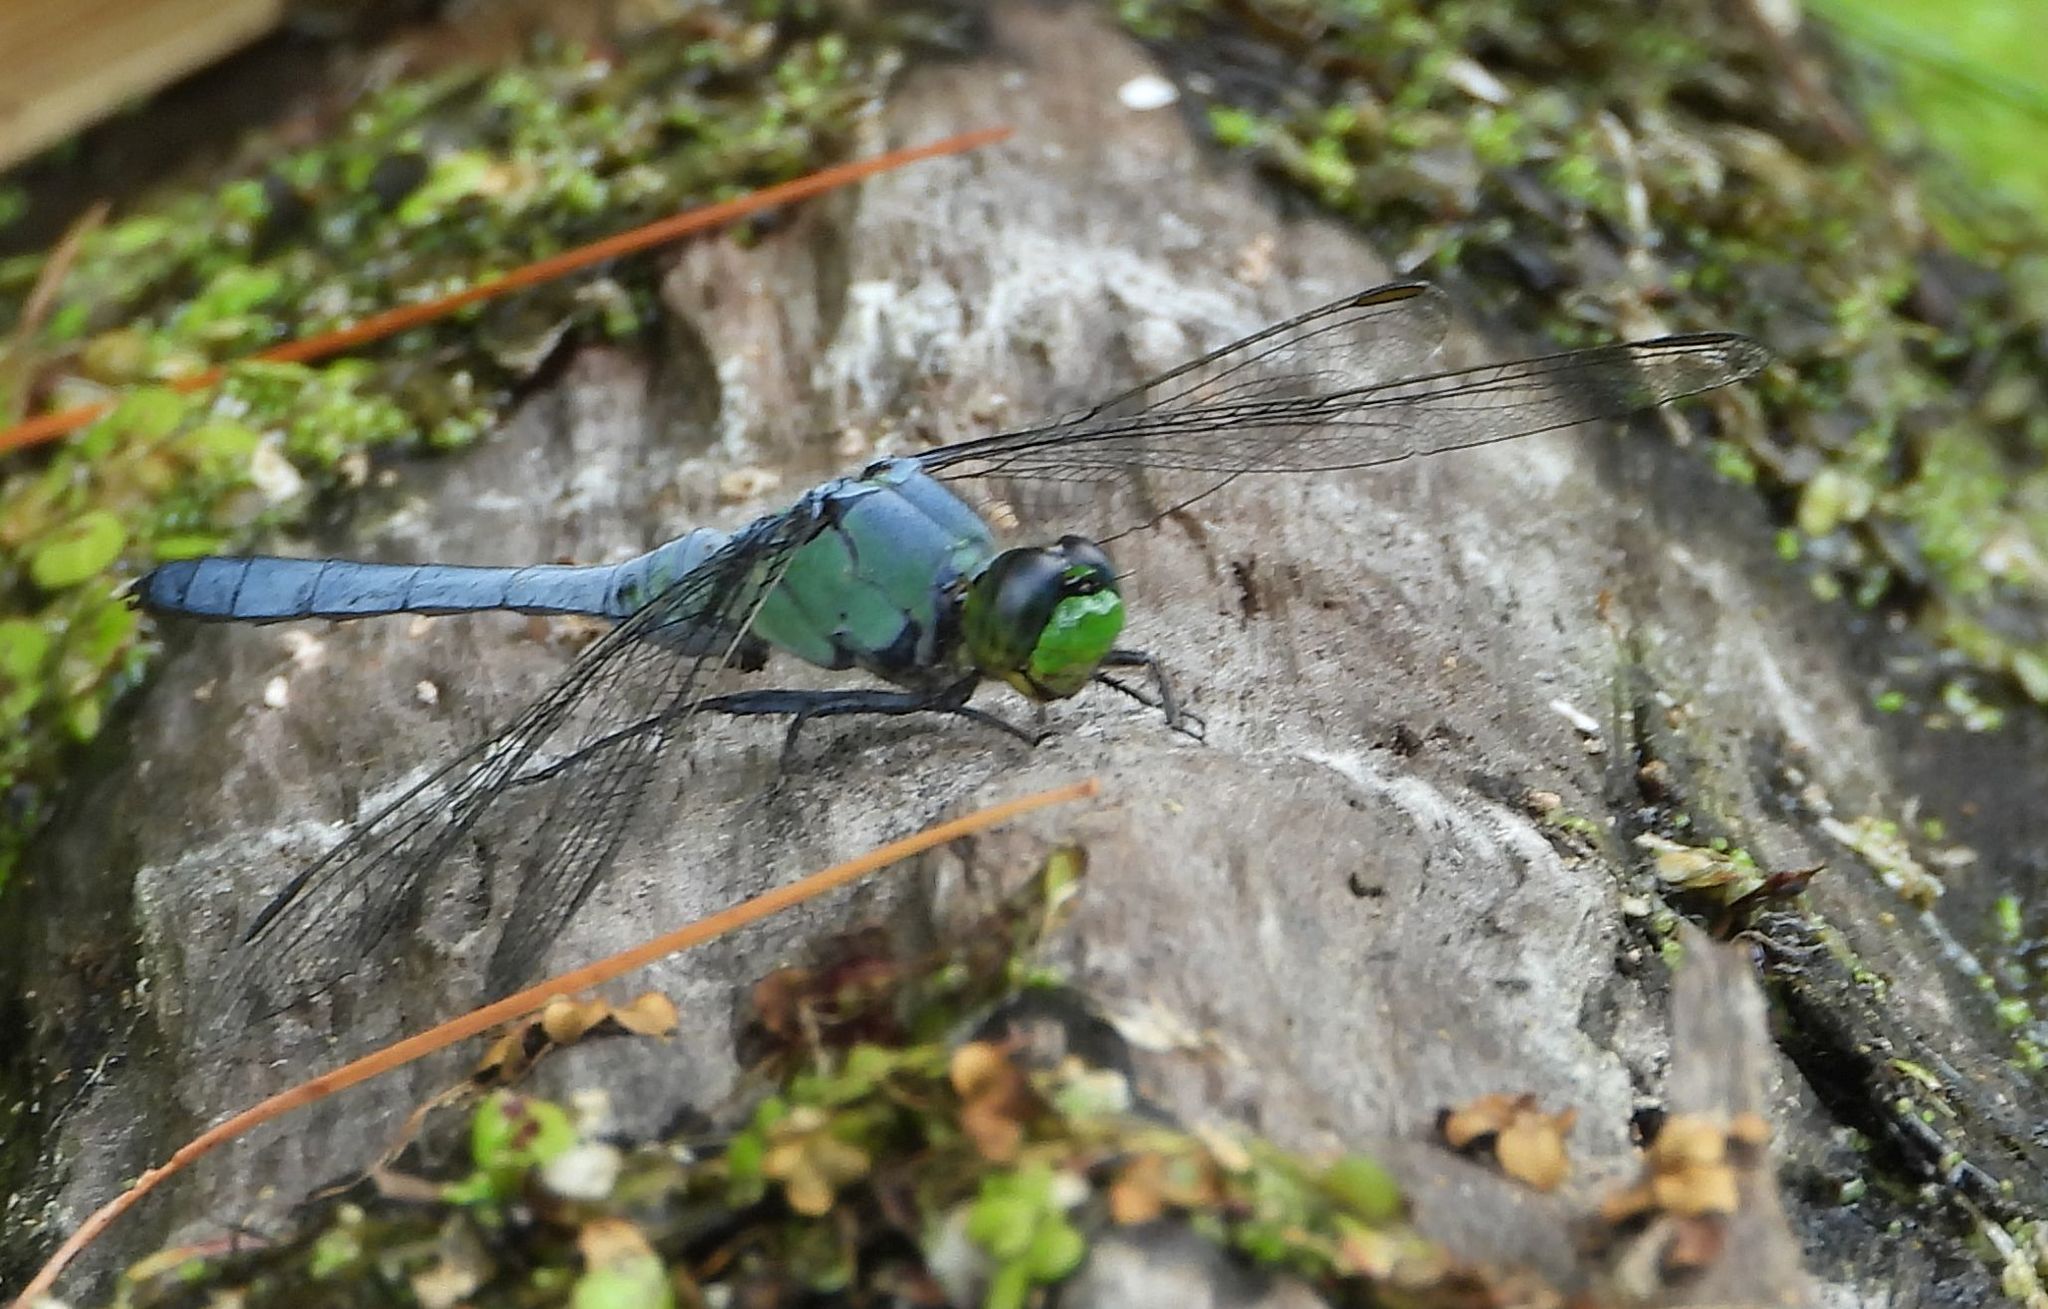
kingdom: Animalia
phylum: Arthropoda
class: Insecta
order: Odonata
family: Libellulidae
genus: Erythemis
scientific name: Erythemis simplicicollis
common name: Eastern pondhawk
